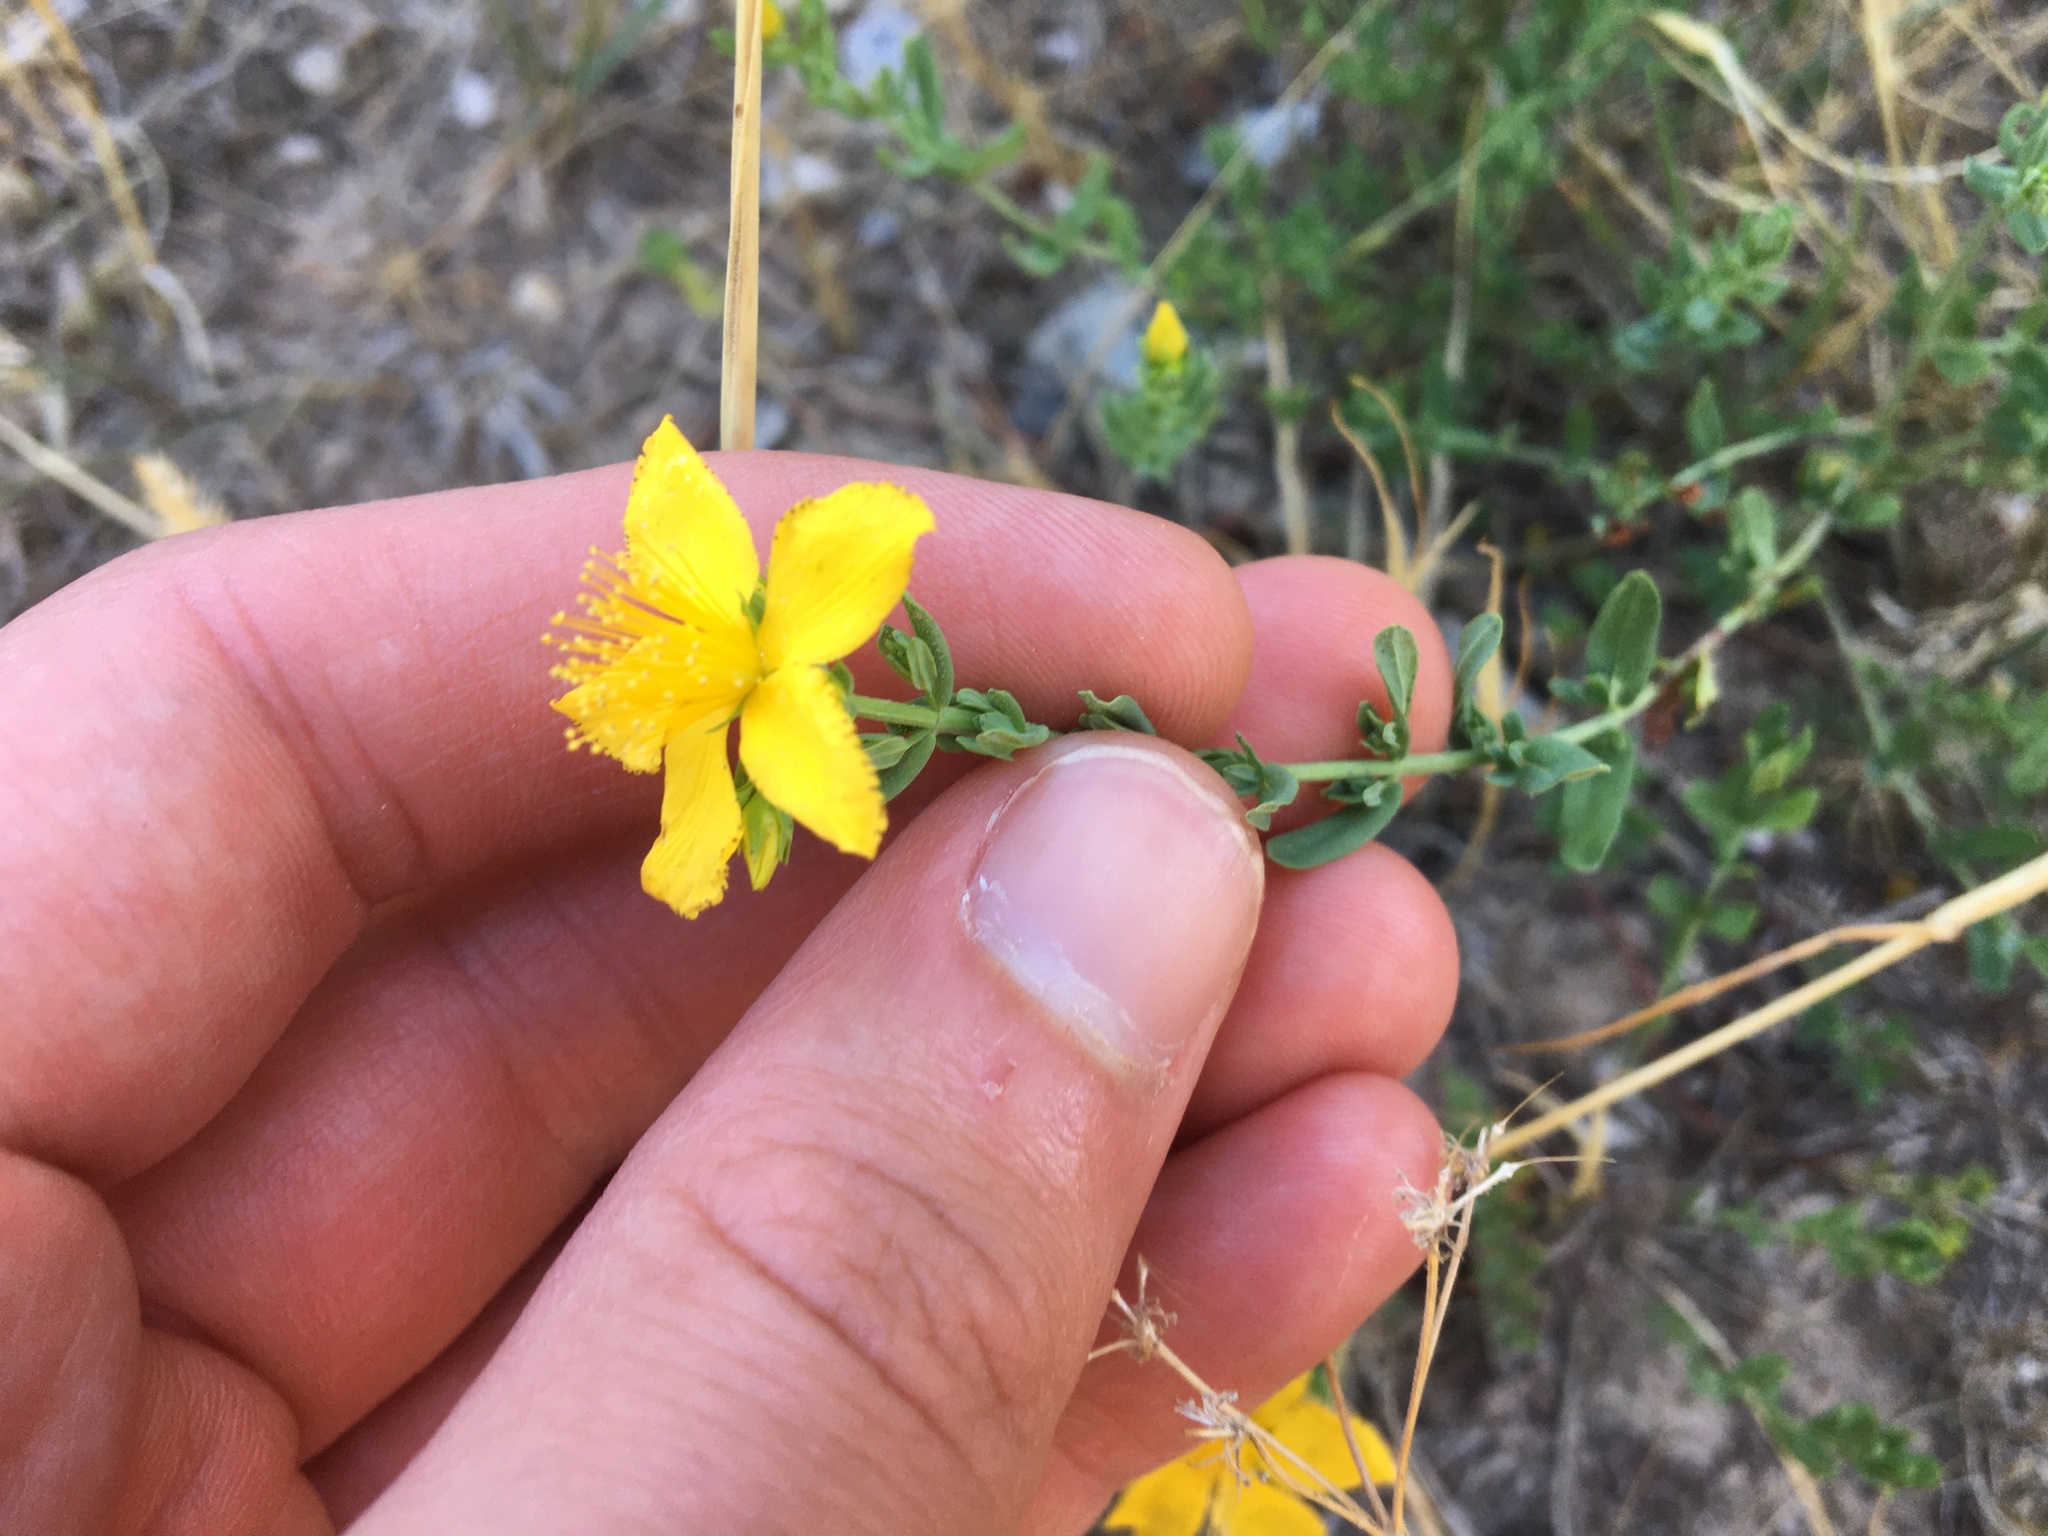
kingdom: Plantae
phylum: Tracheophyta
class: Magnoliopsida
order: Malpighiales
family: Hypericaceae
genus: Hypericum
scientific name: Hypericum perforatum
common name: Common st. johnswort
